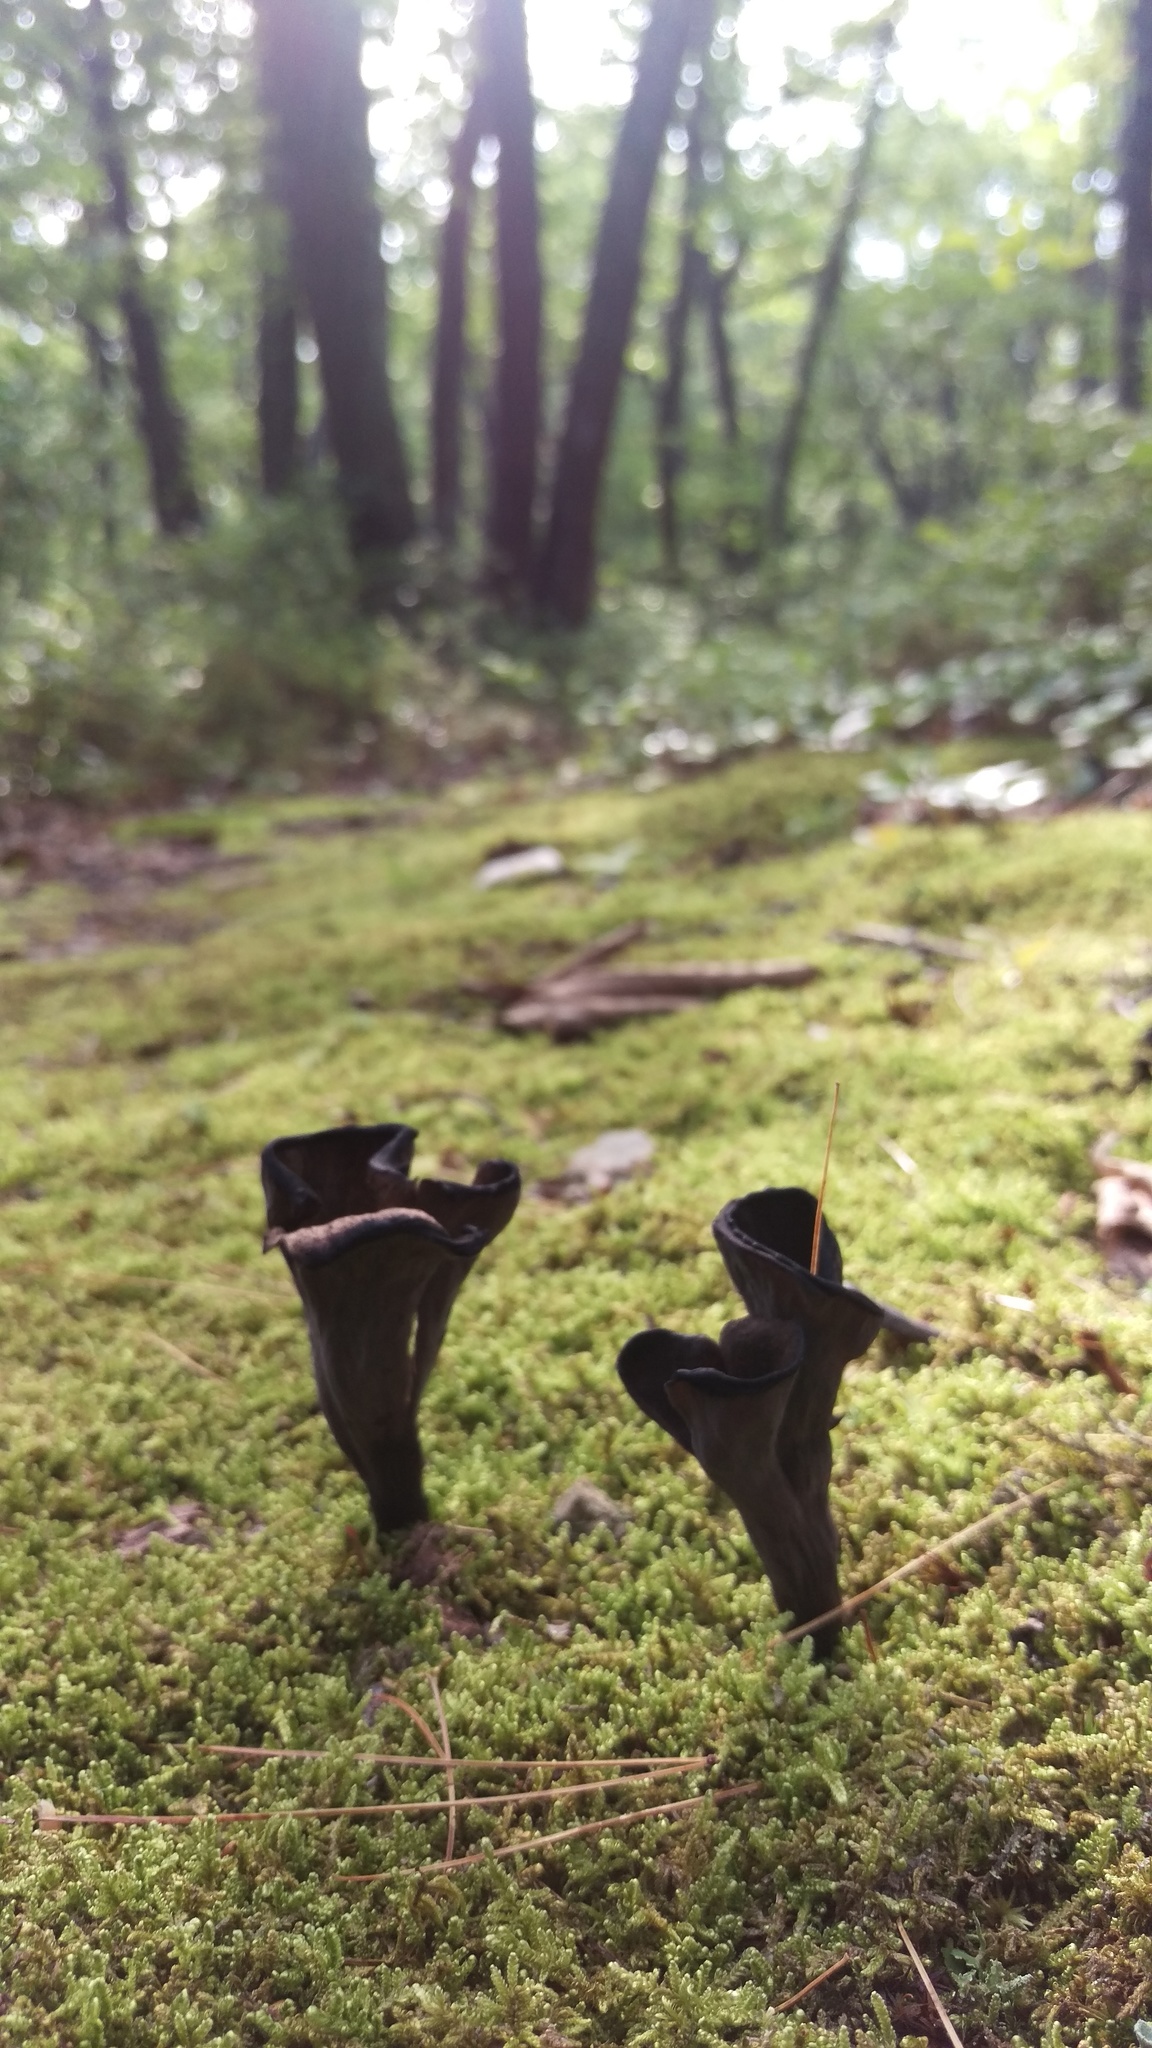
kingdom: Fungi
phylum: Basidiomycota
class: Agaricomycetes
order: Cantharellales
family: Hydnaceae
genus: Craterellus
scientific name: Craterellus cornucopioides
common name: Horn of plenty
